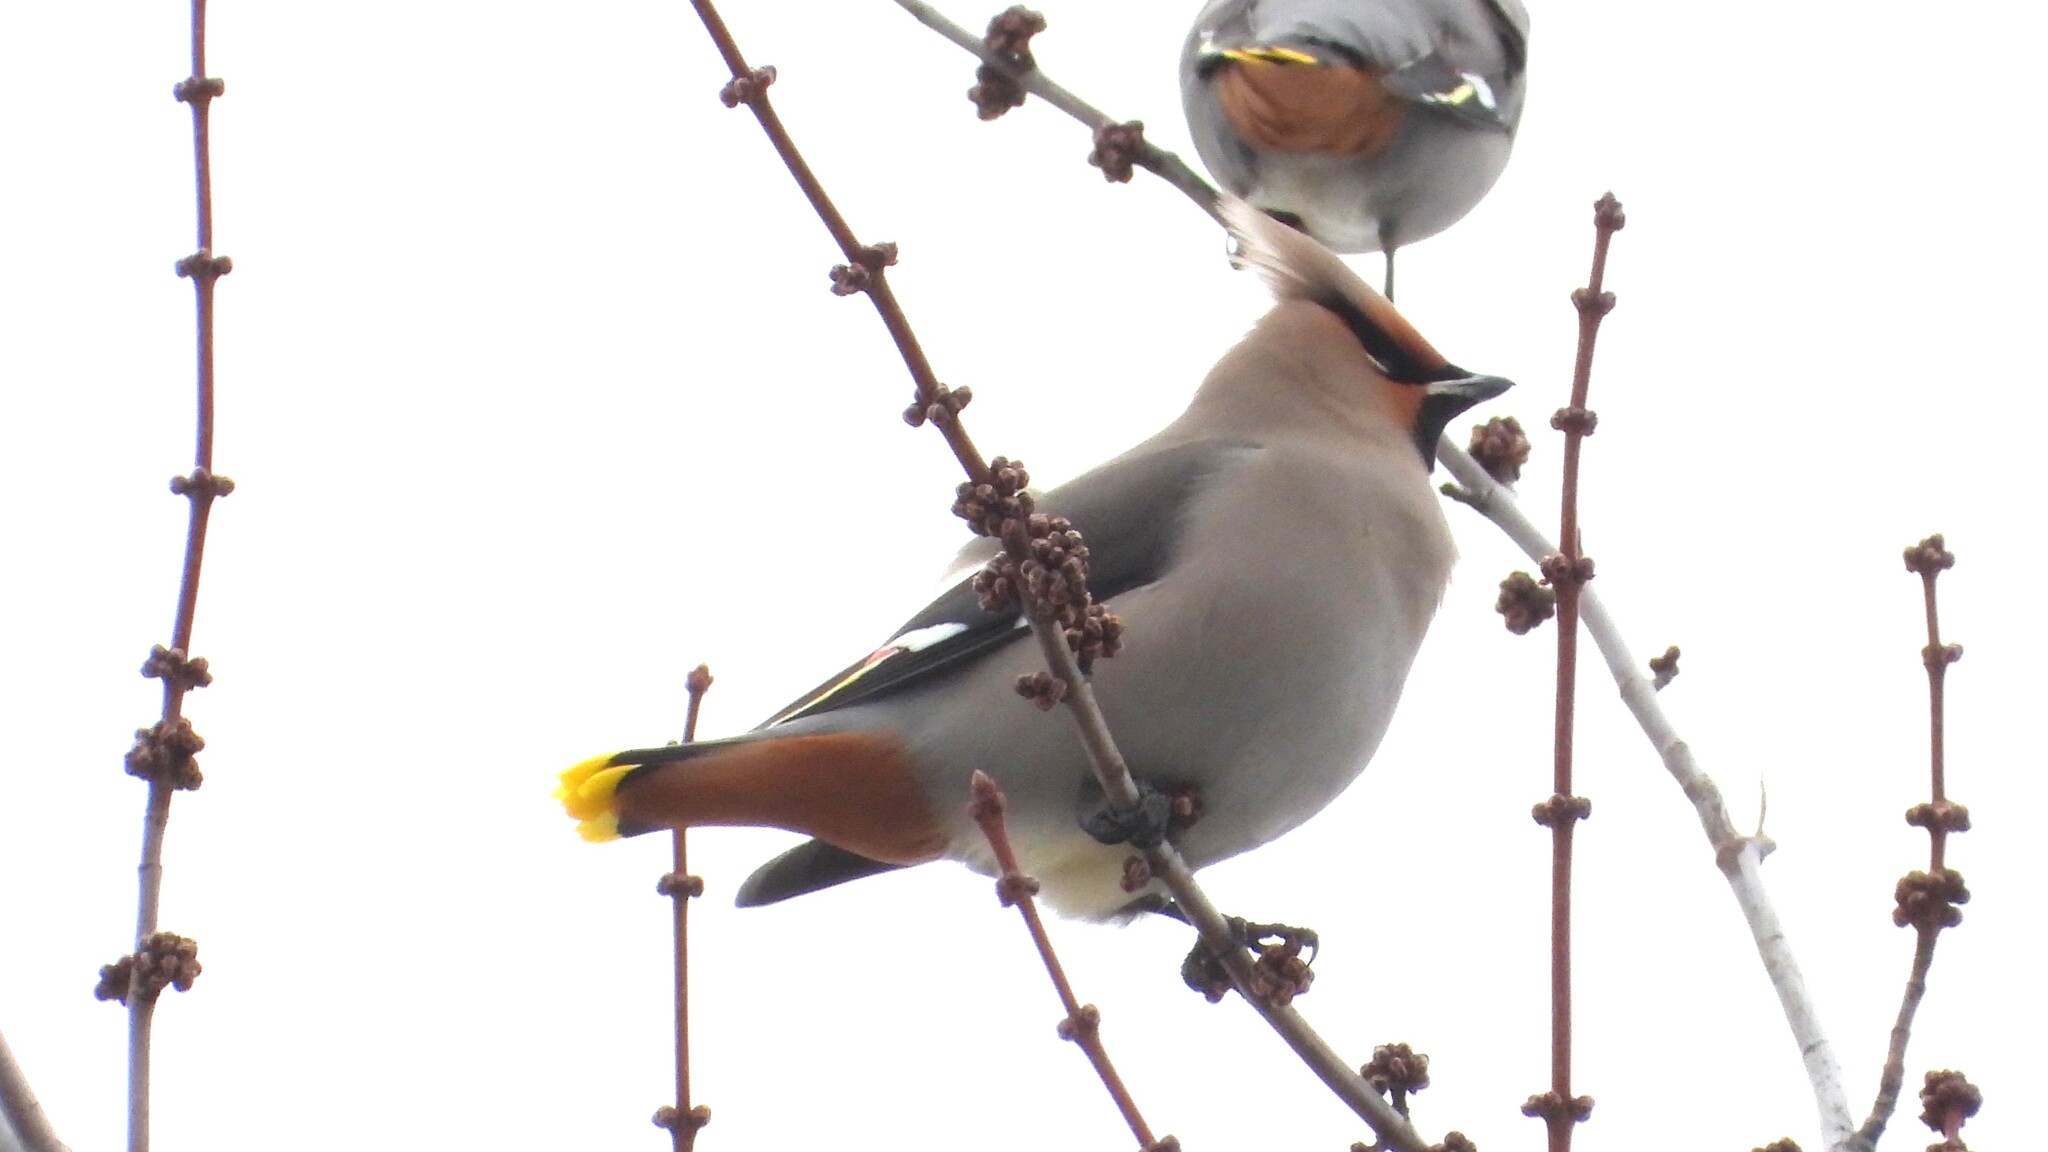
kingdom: Animalia
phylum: Chordata
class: Aves
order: Passeriformes
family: Bombycillidae
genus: Bombycilla
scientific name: Bombycilla garrulus
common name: Bohemian waxwing
